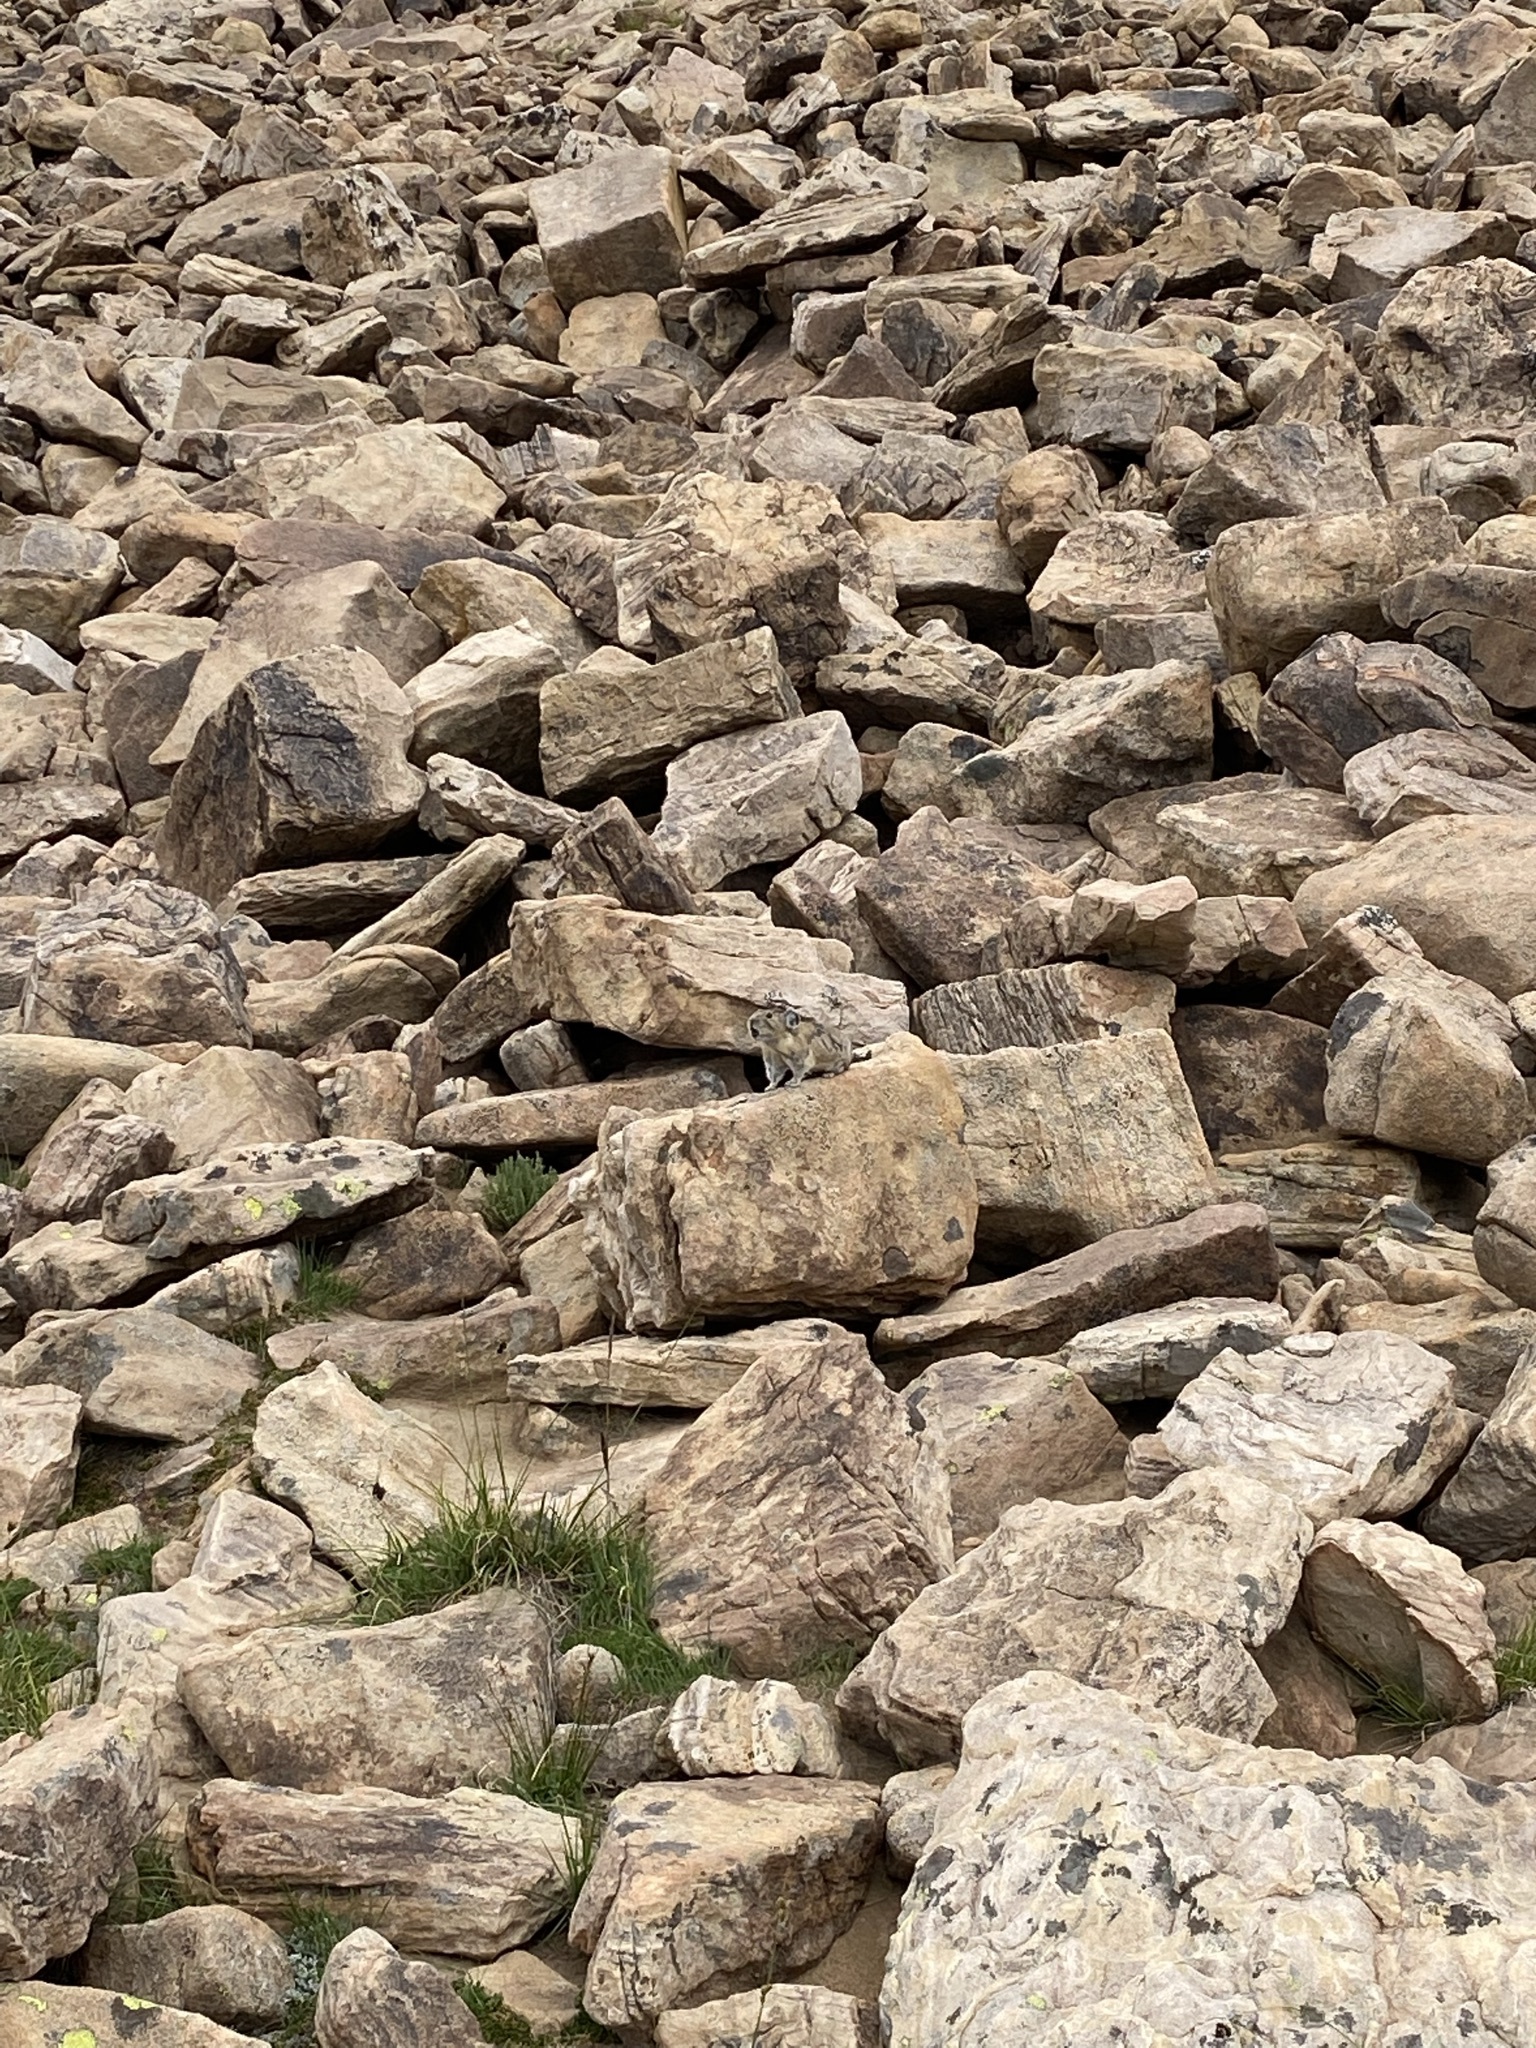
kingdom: Animalia
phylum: Chordata
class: Mammalia
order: Lagomorpha
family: Ochotonidae
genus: Ochotona
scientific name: Ochotona princeps
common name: American pika
